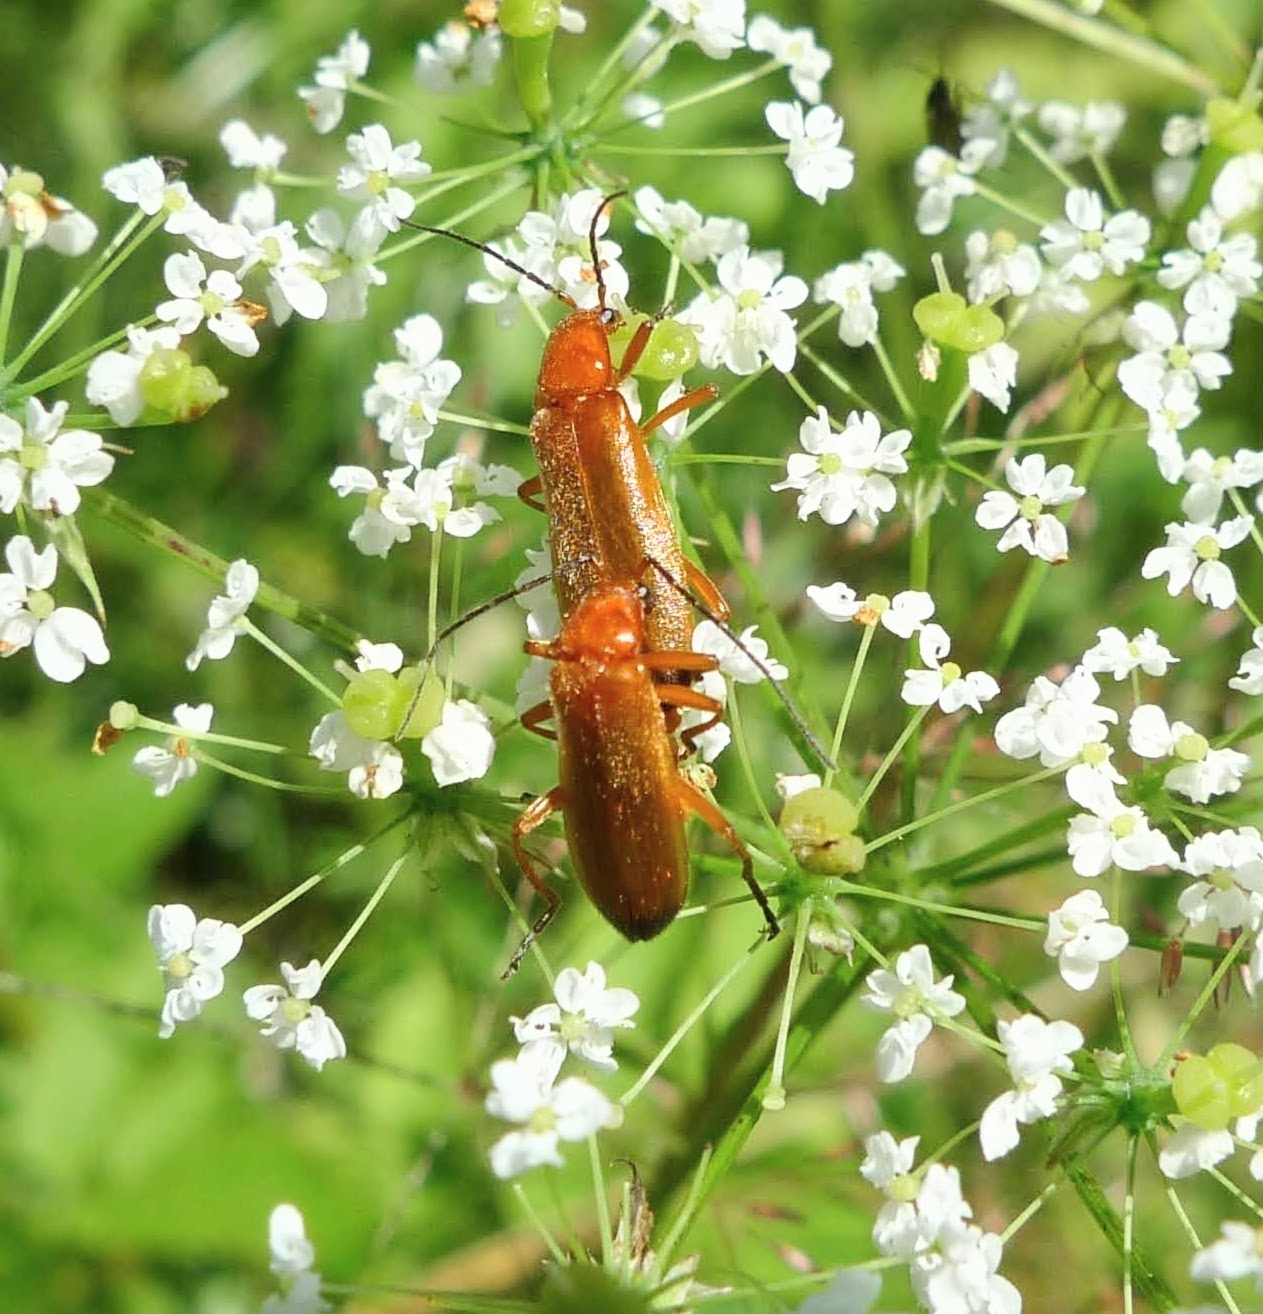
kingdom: Animalia
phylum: Arthropoda
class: Insecta
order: Coleoptera
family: Cantharidae
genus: Rhagonycha
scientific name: Rhagonycha fulva
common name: Common red soldier beetle
